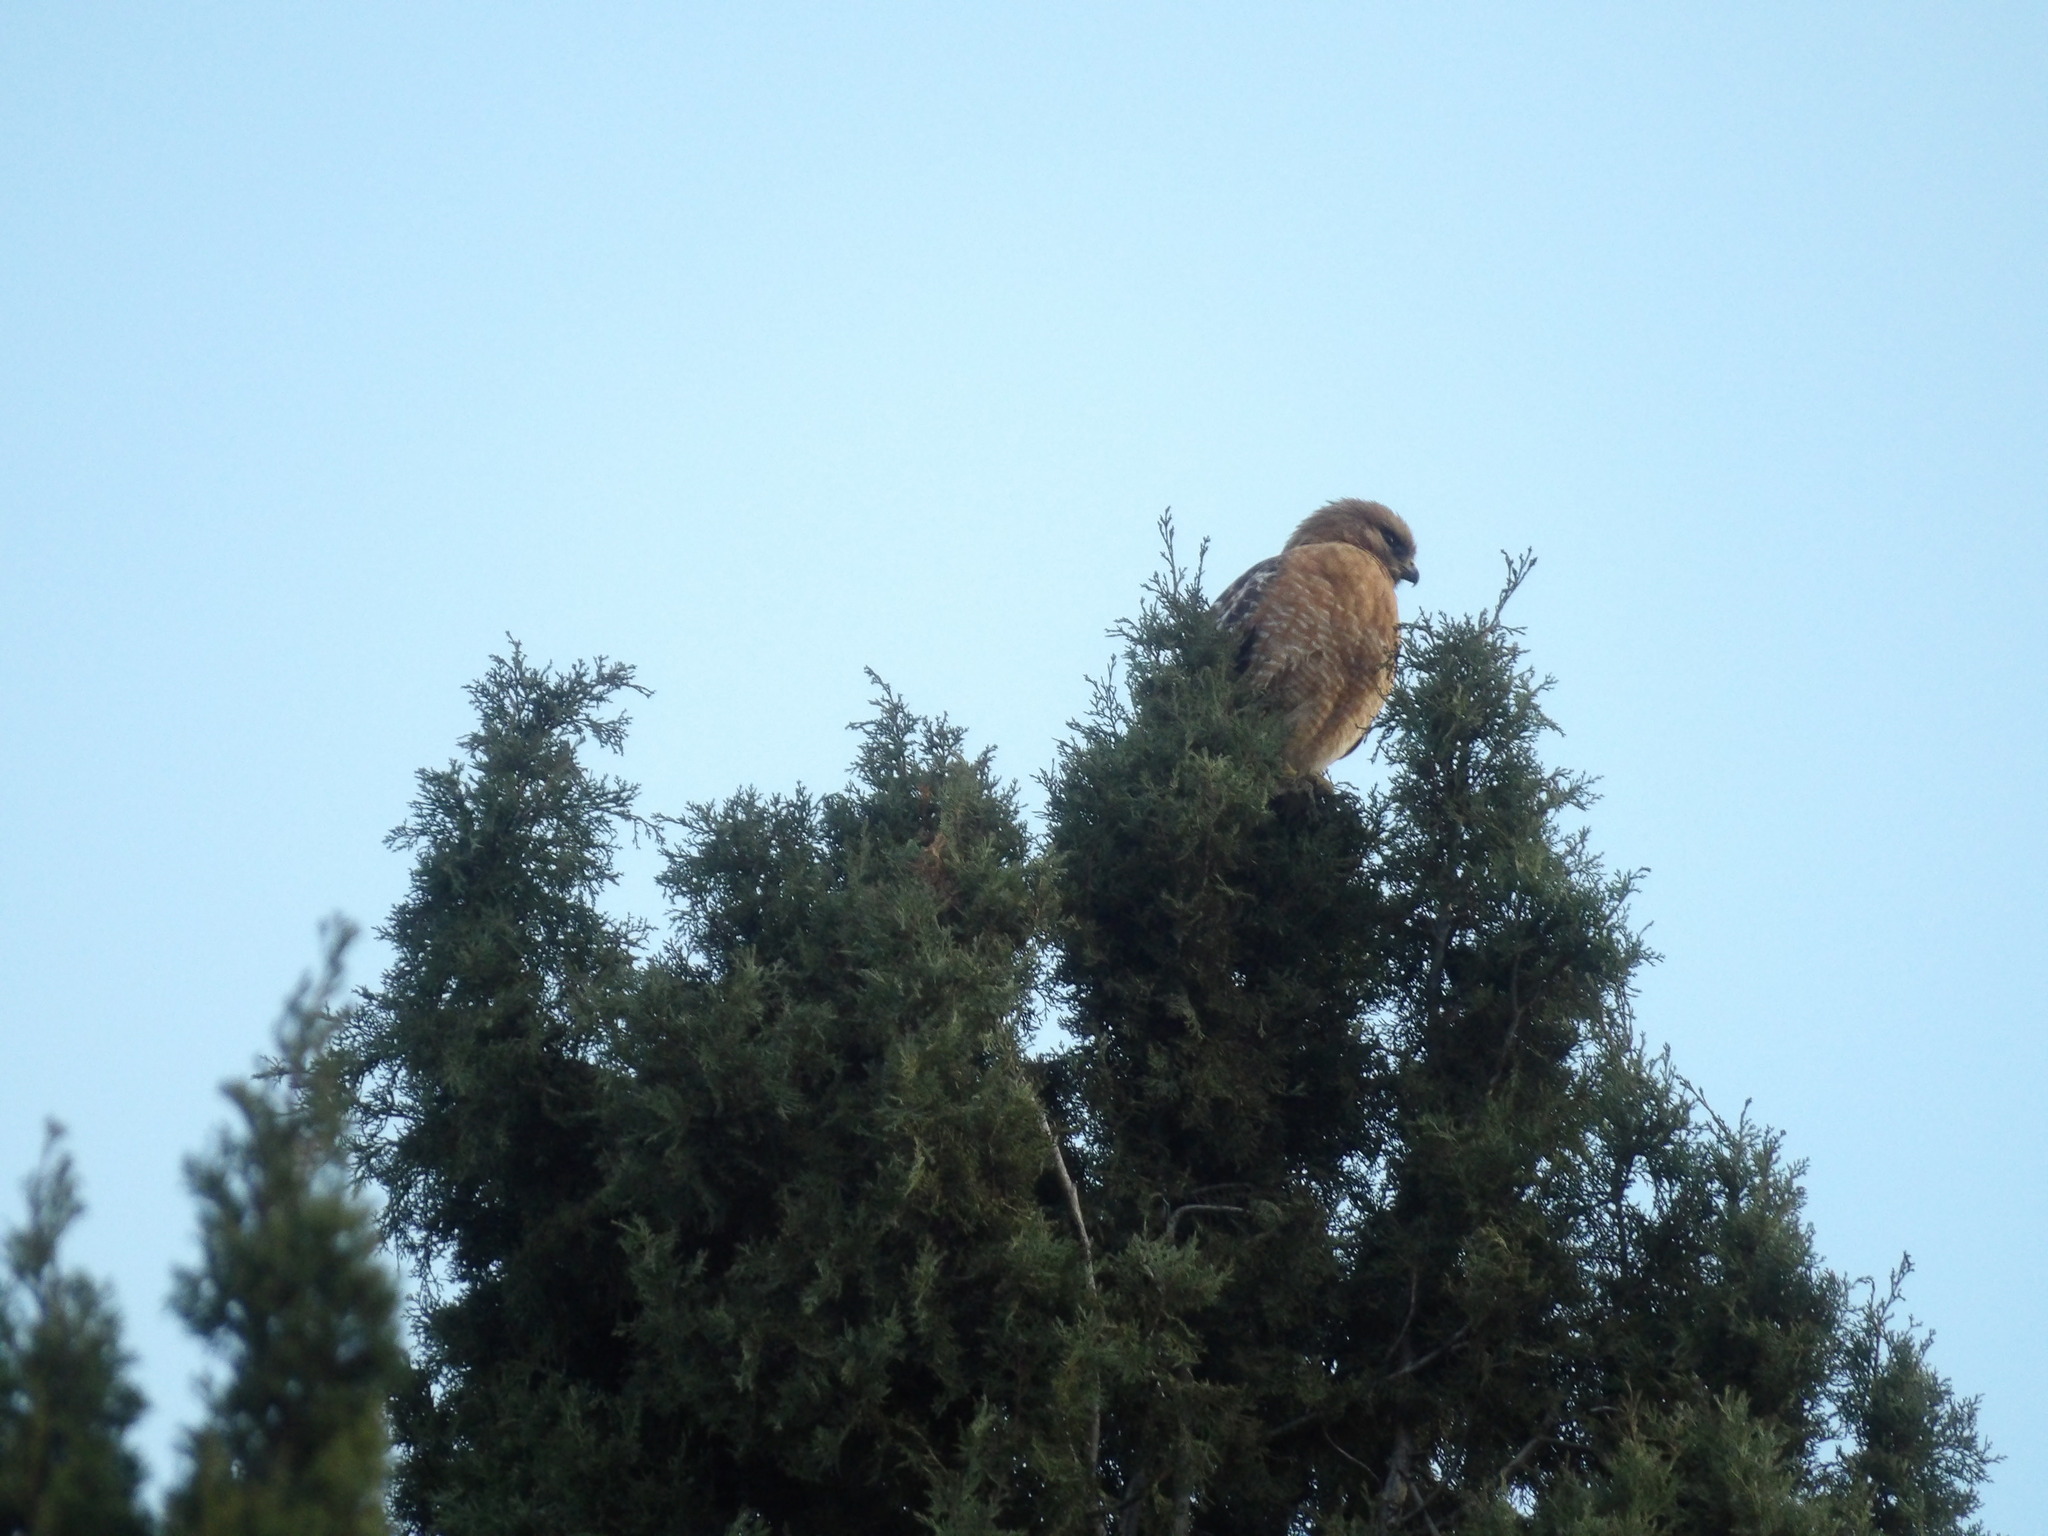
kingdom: Animalia
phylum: Chordata
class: Aves
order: Accipitriformes
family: Accipitridae
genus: Buteo
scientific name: Buteo lineatus
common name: Red-shouldered hawk
